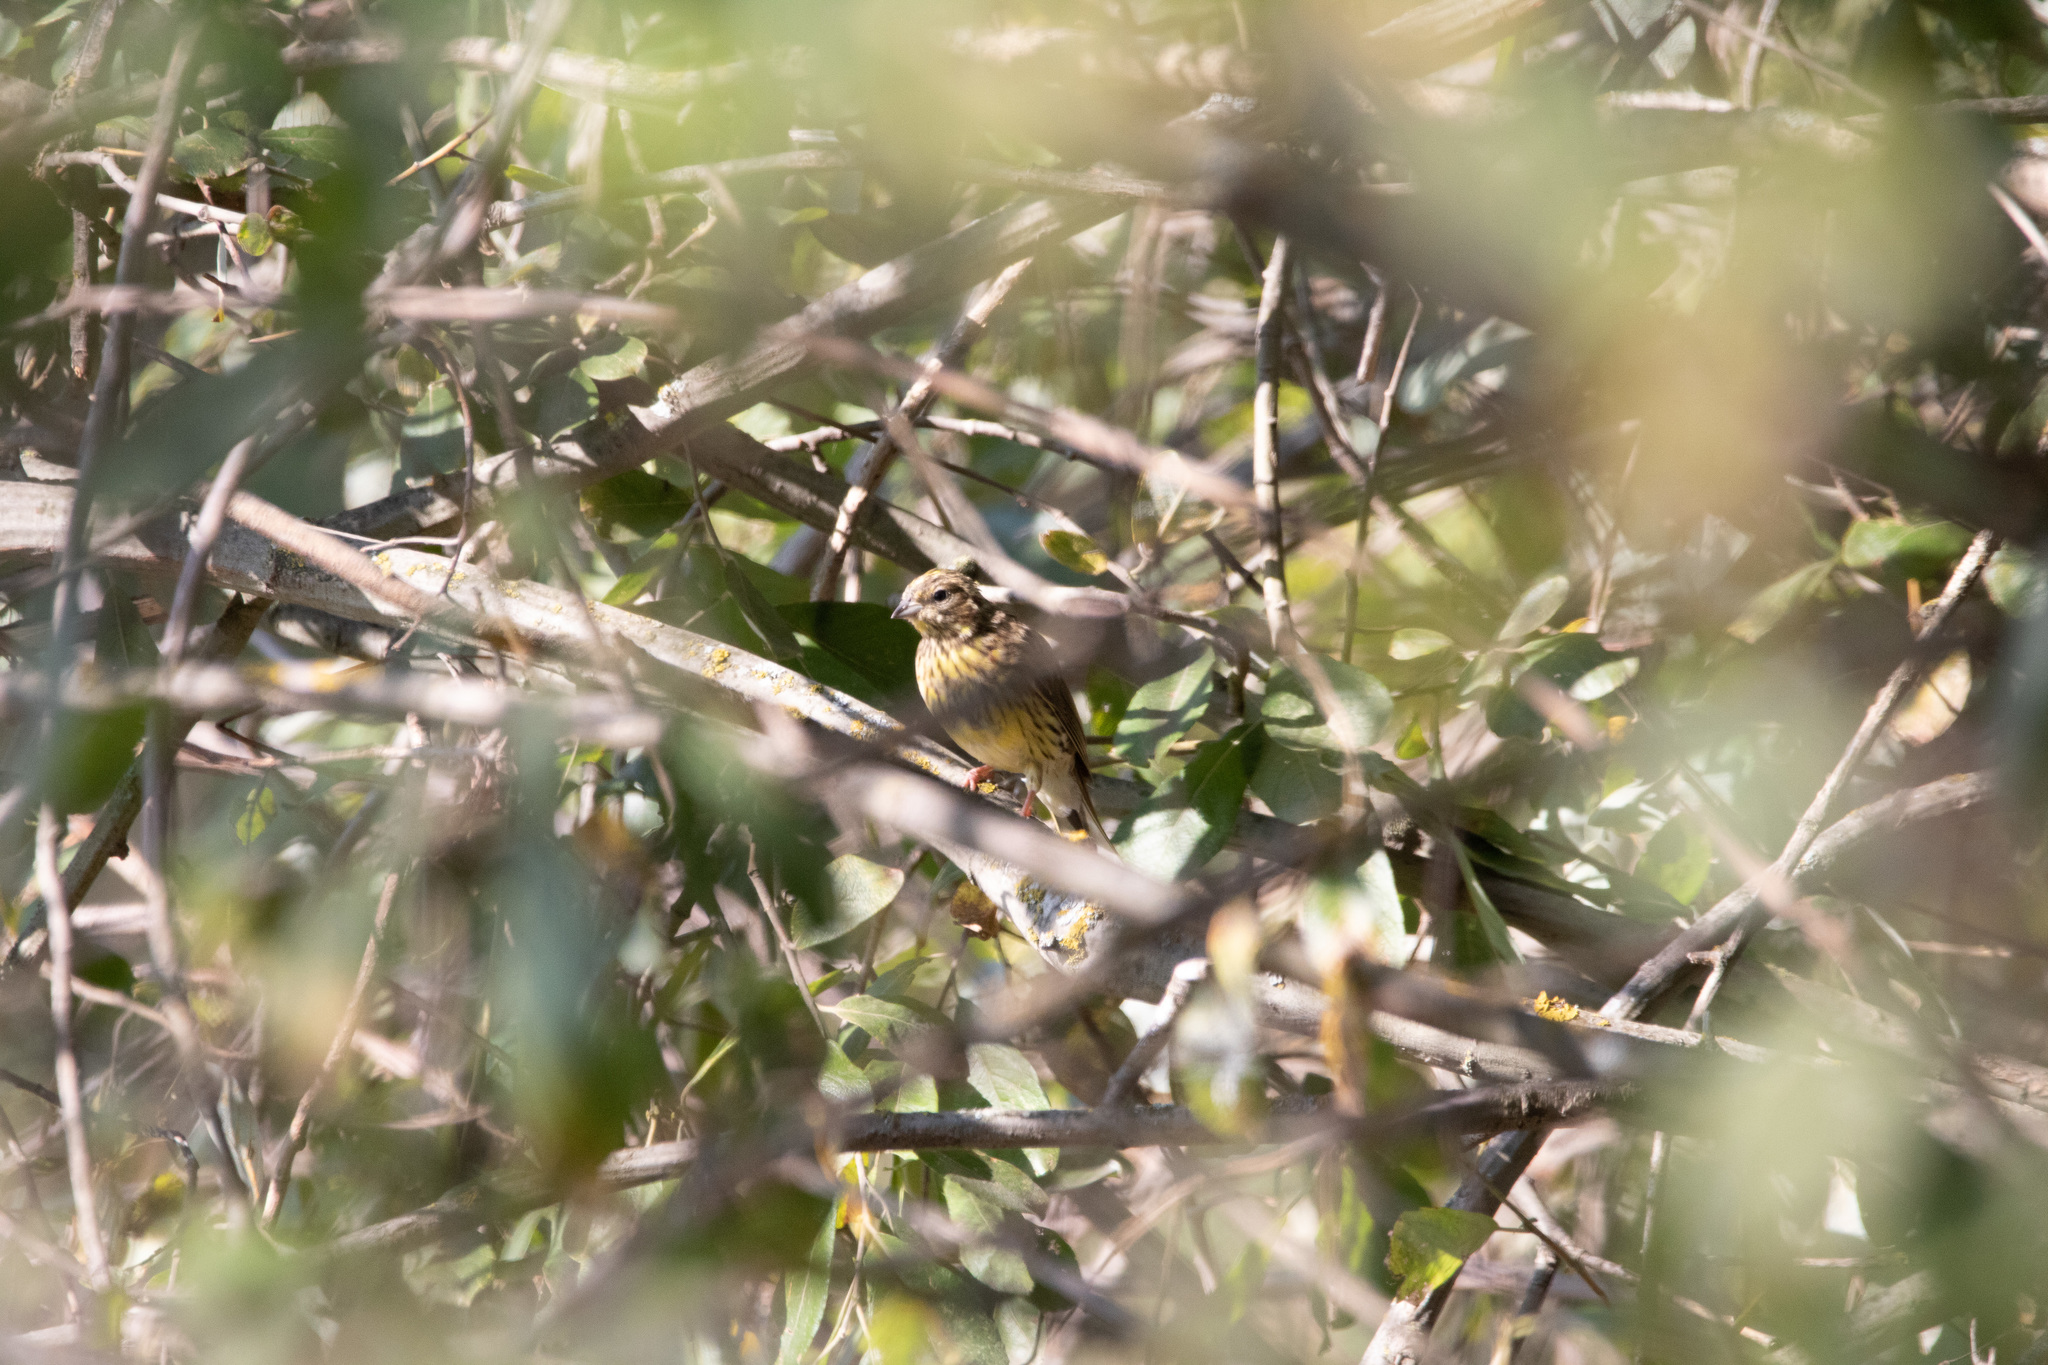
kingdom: Animalia
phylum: Chordata
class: Aves
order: Passeriformes
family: Emberizidae
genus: Emberiza
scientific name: Emberiza citrinella
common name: Yellowhammer
